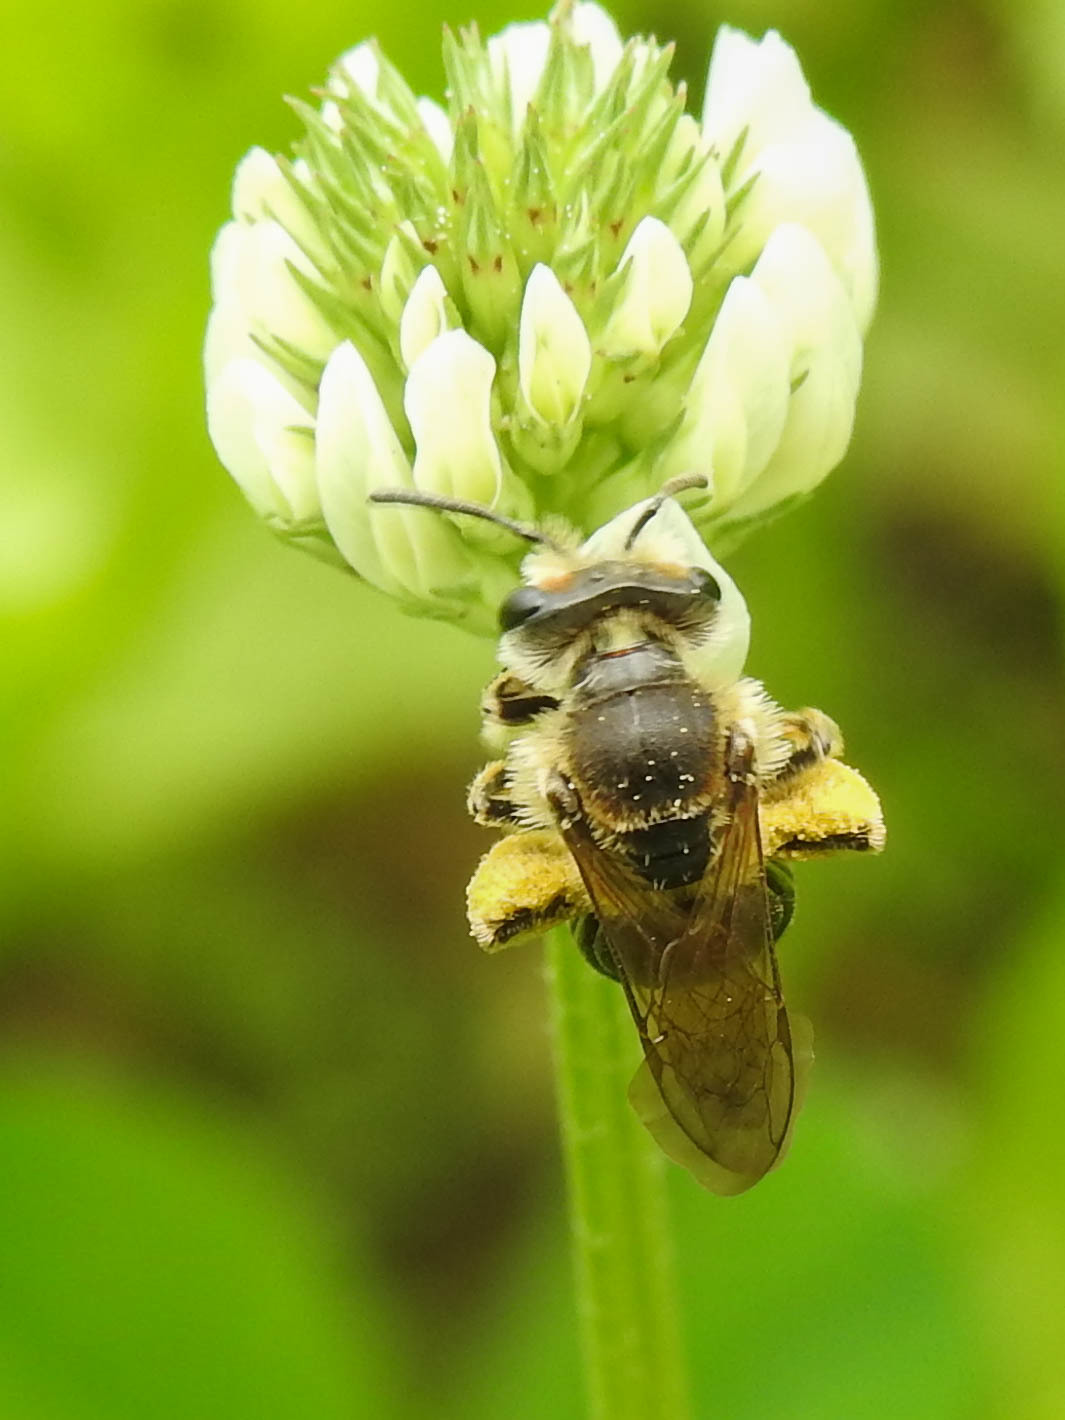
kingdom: Animalia
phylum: Arthropoda
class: Insecta
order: Hymenoptera
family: Andrenidae
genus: Andrena
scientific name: Andrena wilkella
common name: Wilke's mining bee
